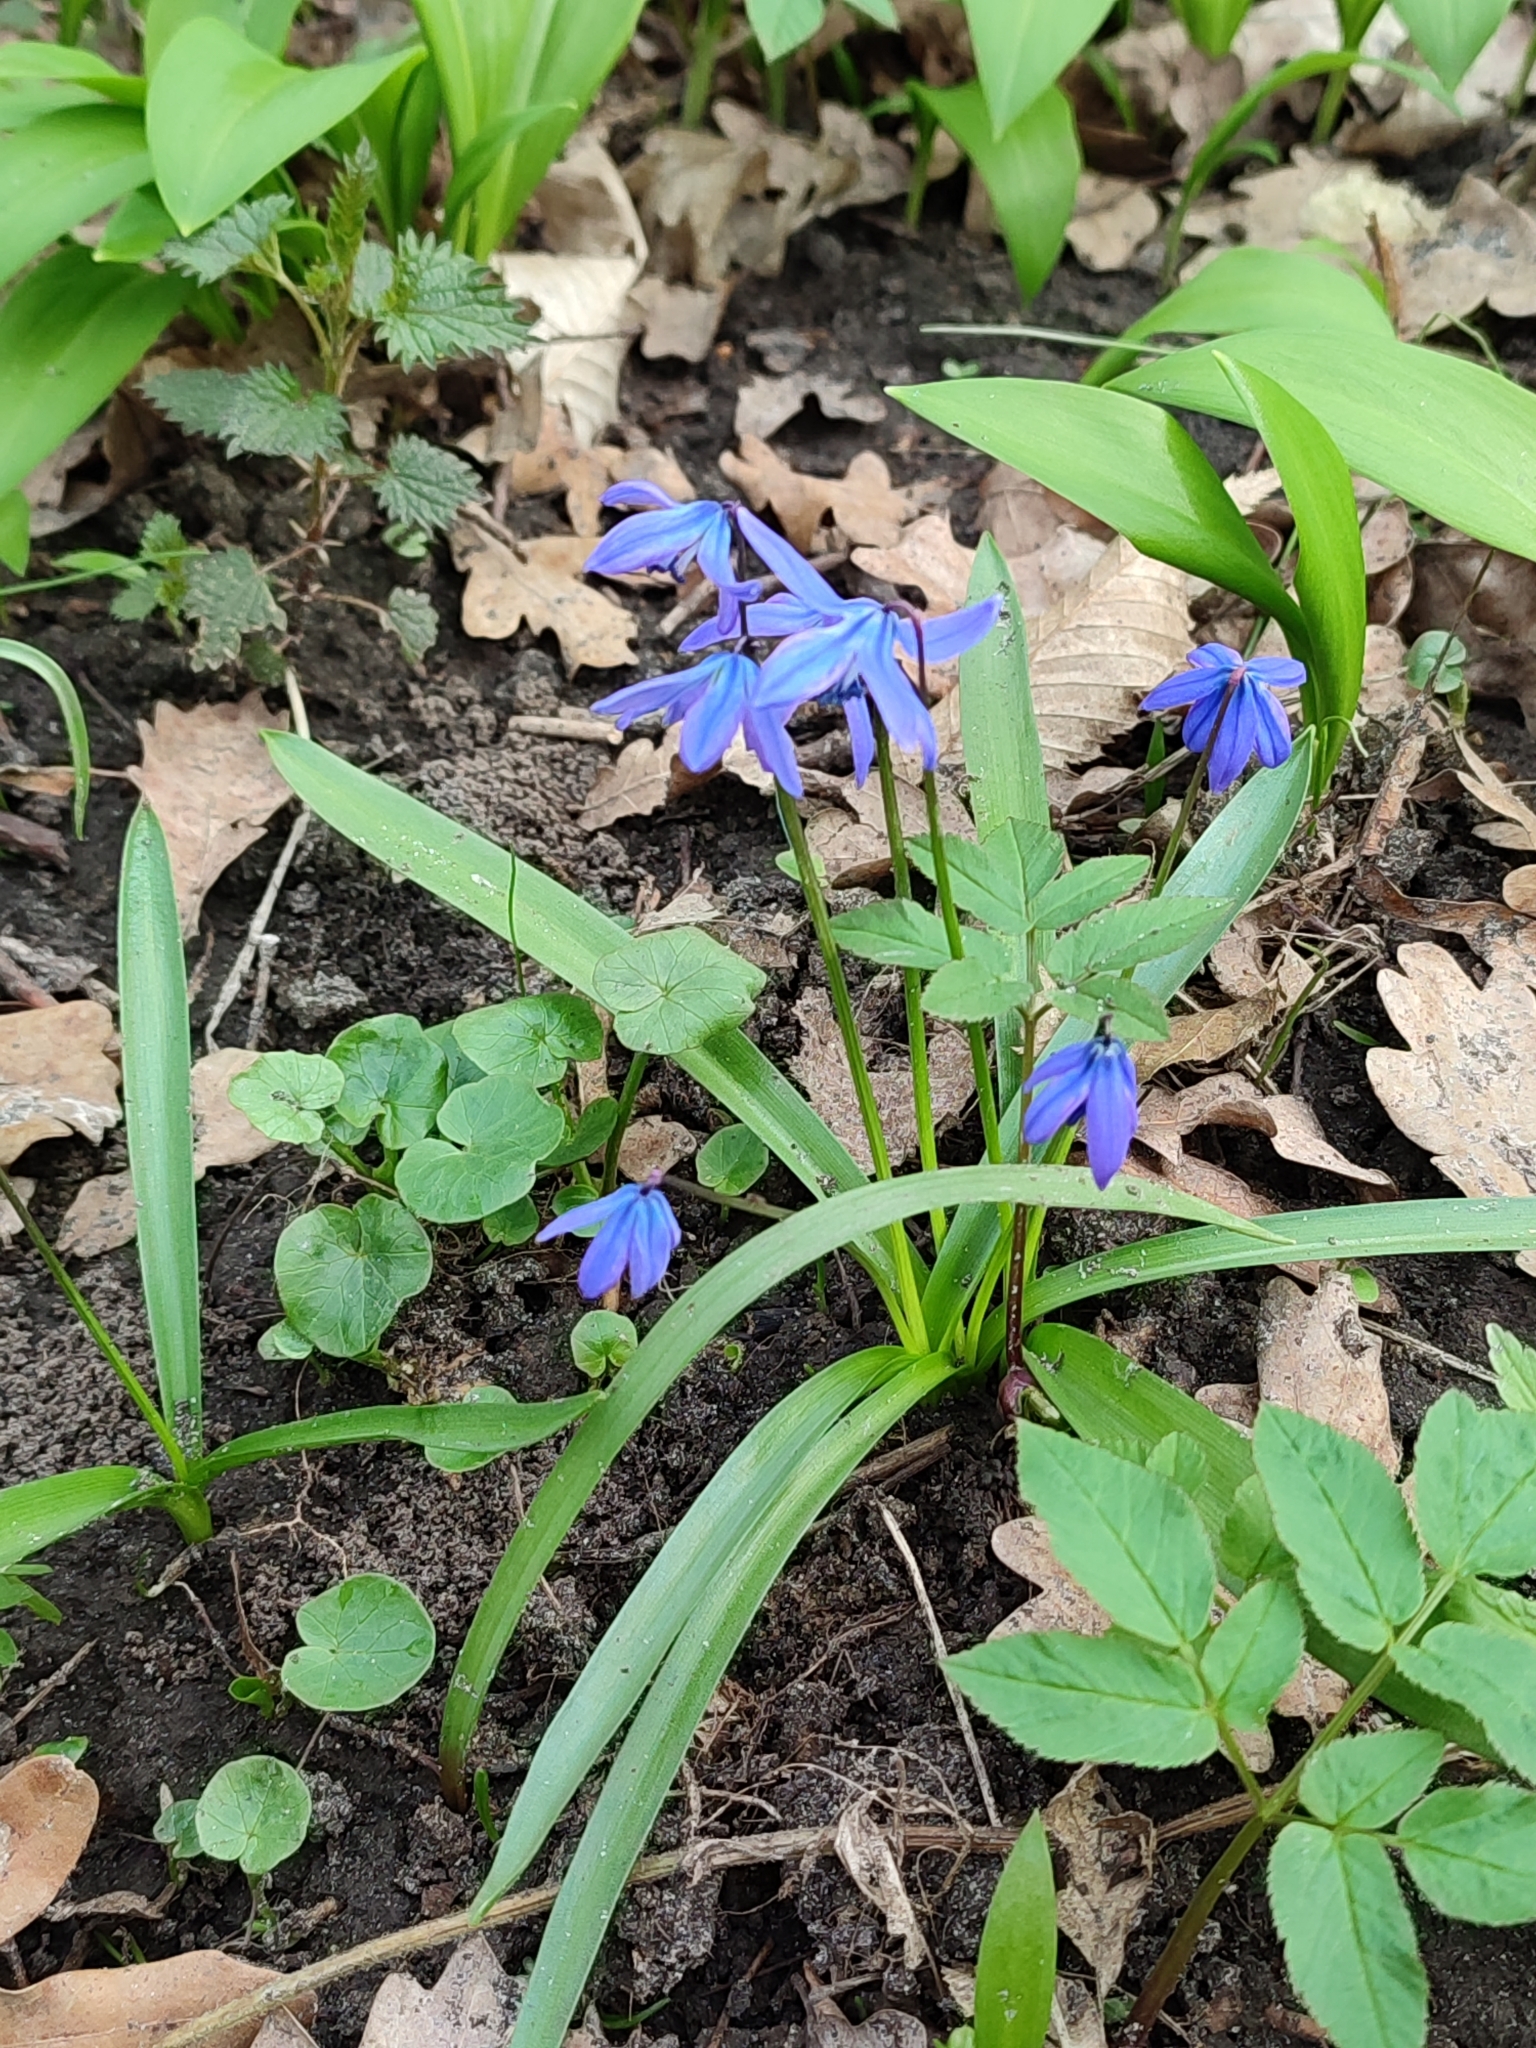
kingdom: Plantae
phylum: Tracheophyta
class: Liliopsida
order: Asparagales
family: Asparagaceae
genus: Scilla
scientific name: Scilla siberica
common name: Siberian squill
